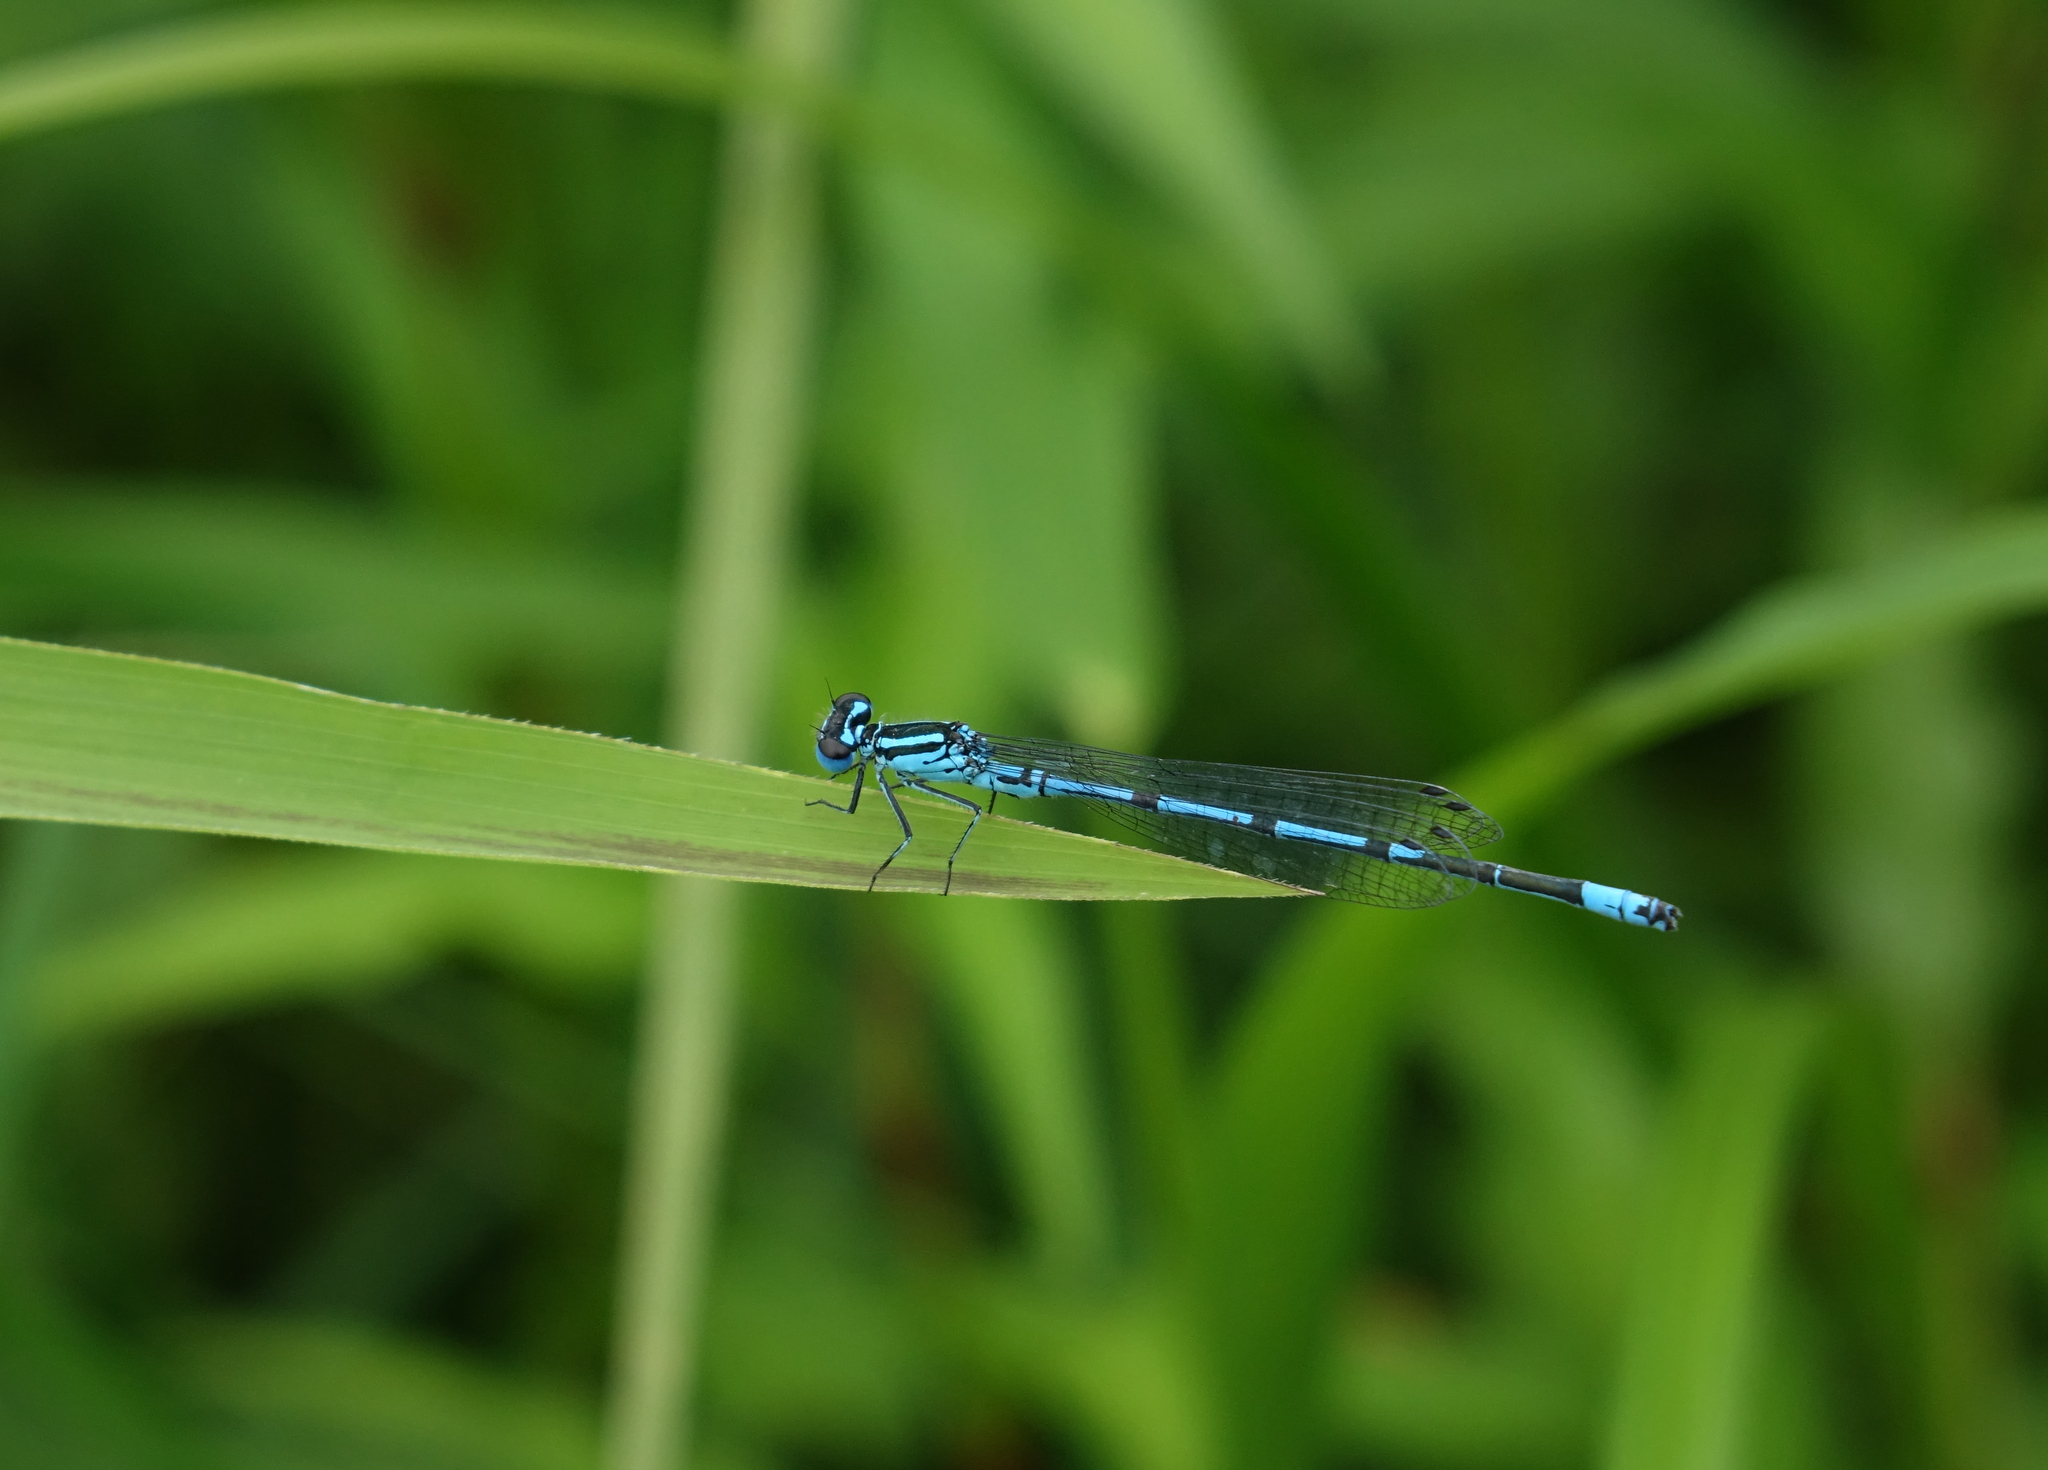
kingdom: Animalia
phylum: Arthropoda
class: Insecta
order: Odonata
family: Coenagrionidae
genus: Coenagrion
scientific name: Coenagrion puella
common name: Azure damselfly
